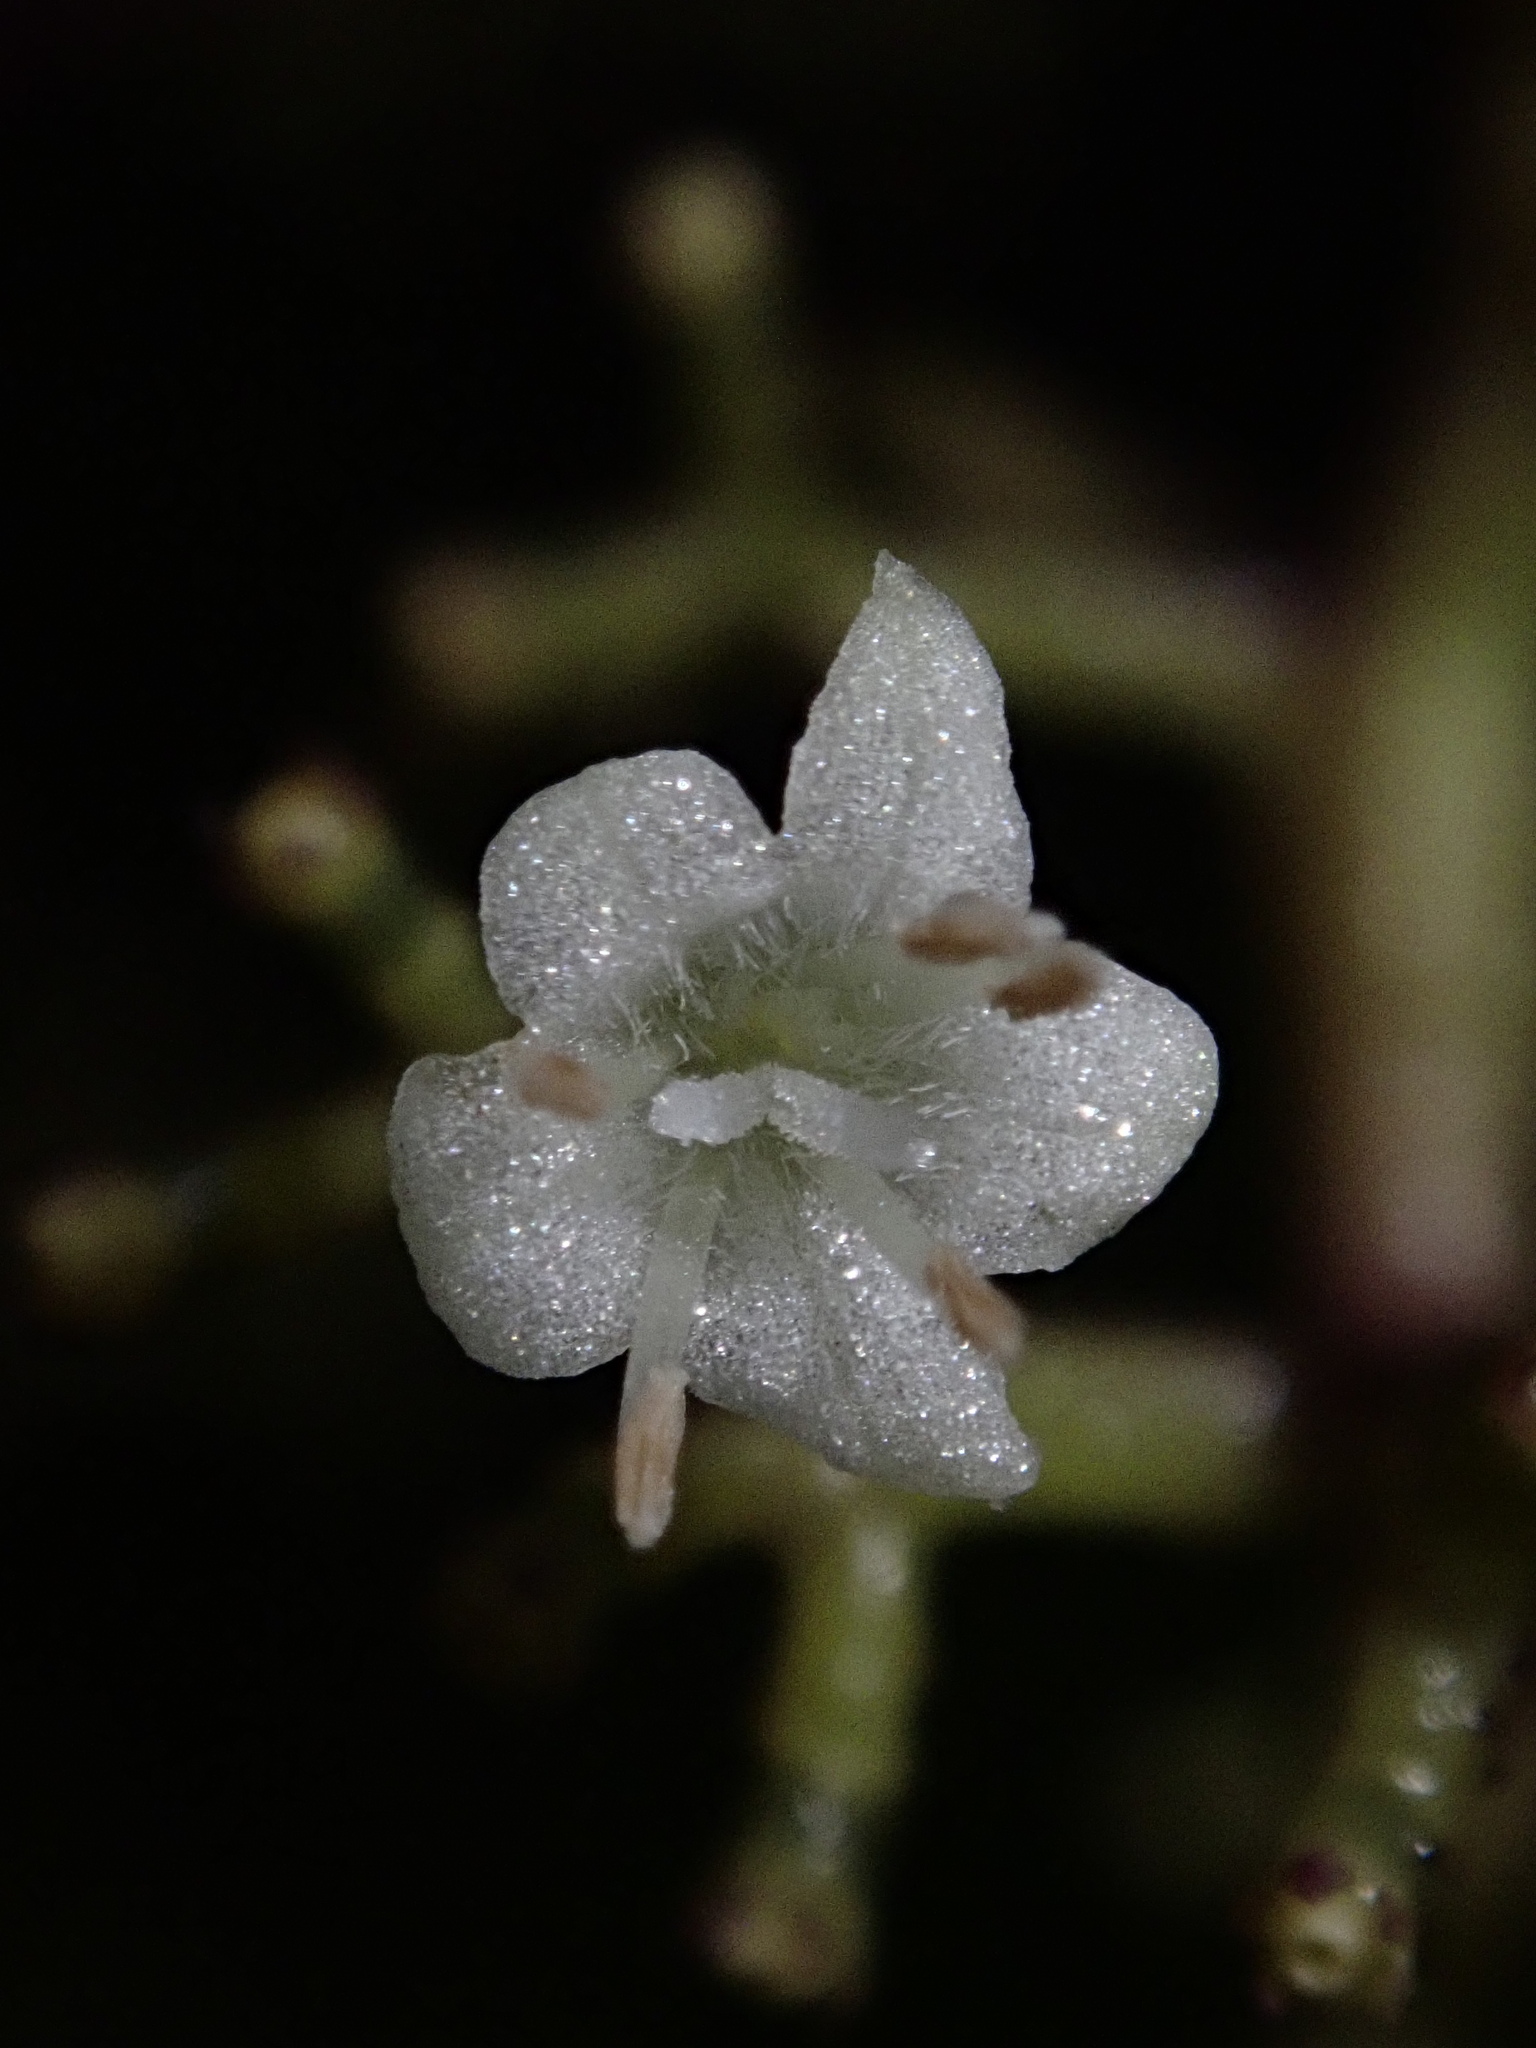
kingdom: Plantae
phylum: Tracheophyta
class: Magnoliopsida
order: Gentianales
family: Rubiaceae
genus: Palicourea
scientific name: Palicourea woronovii
